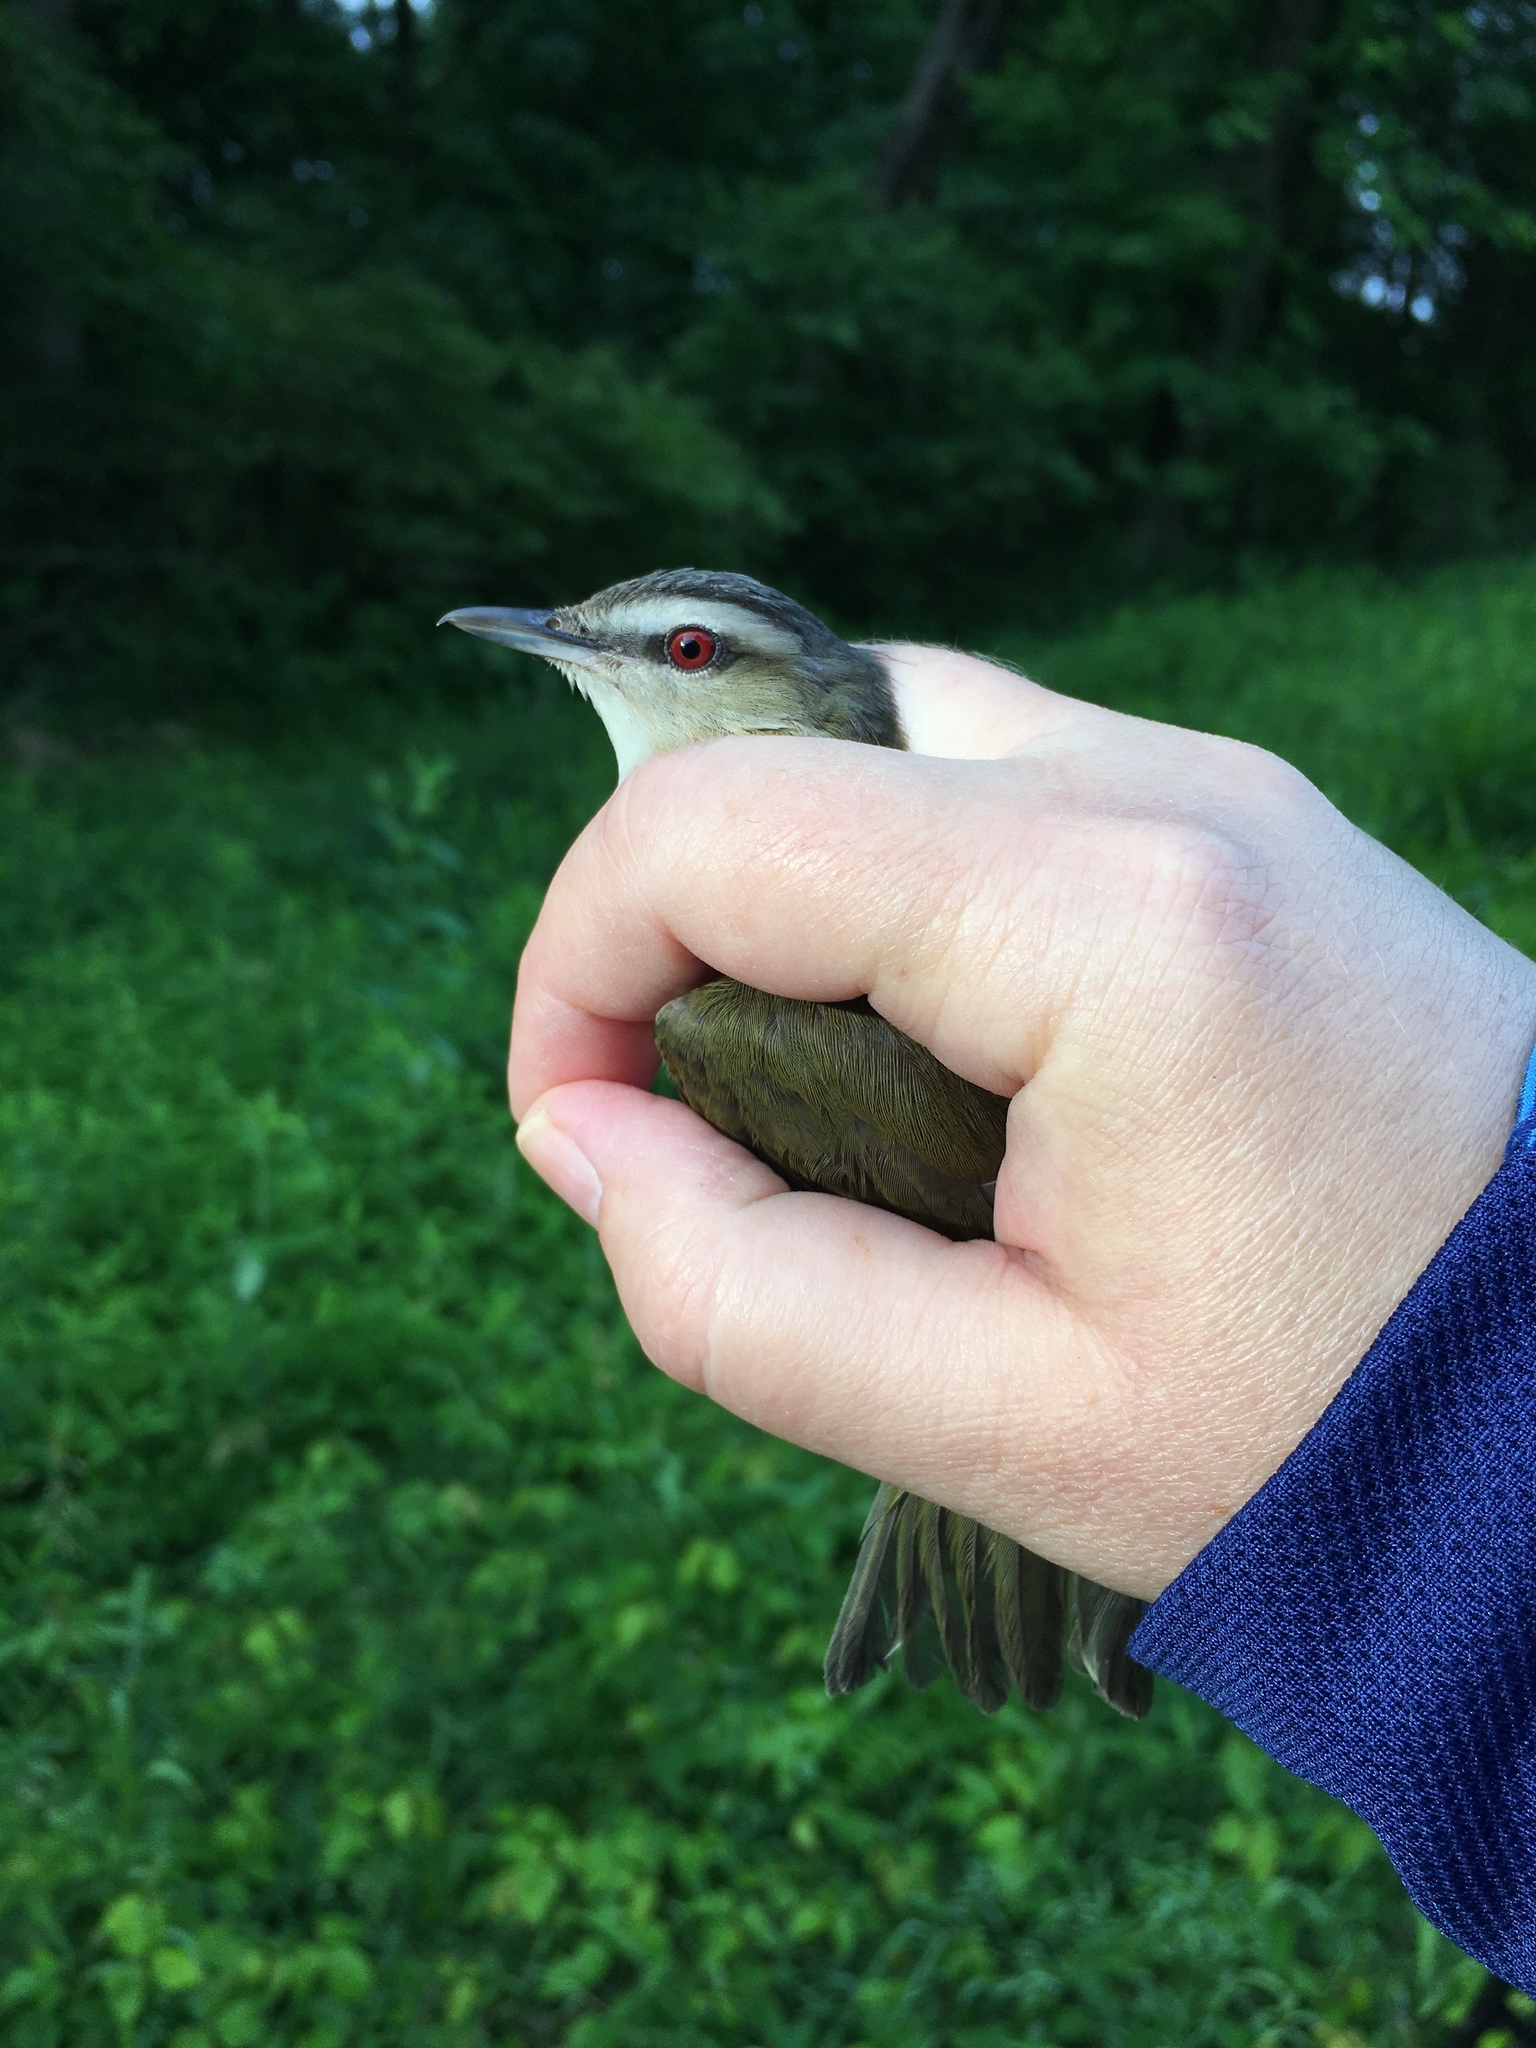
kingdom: Animalia
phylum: Chordata
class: Aves
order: Passeriformes
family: Vireonidae
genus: Vireo
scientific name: Vireo olivaceus
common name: Red-eyed vireo
